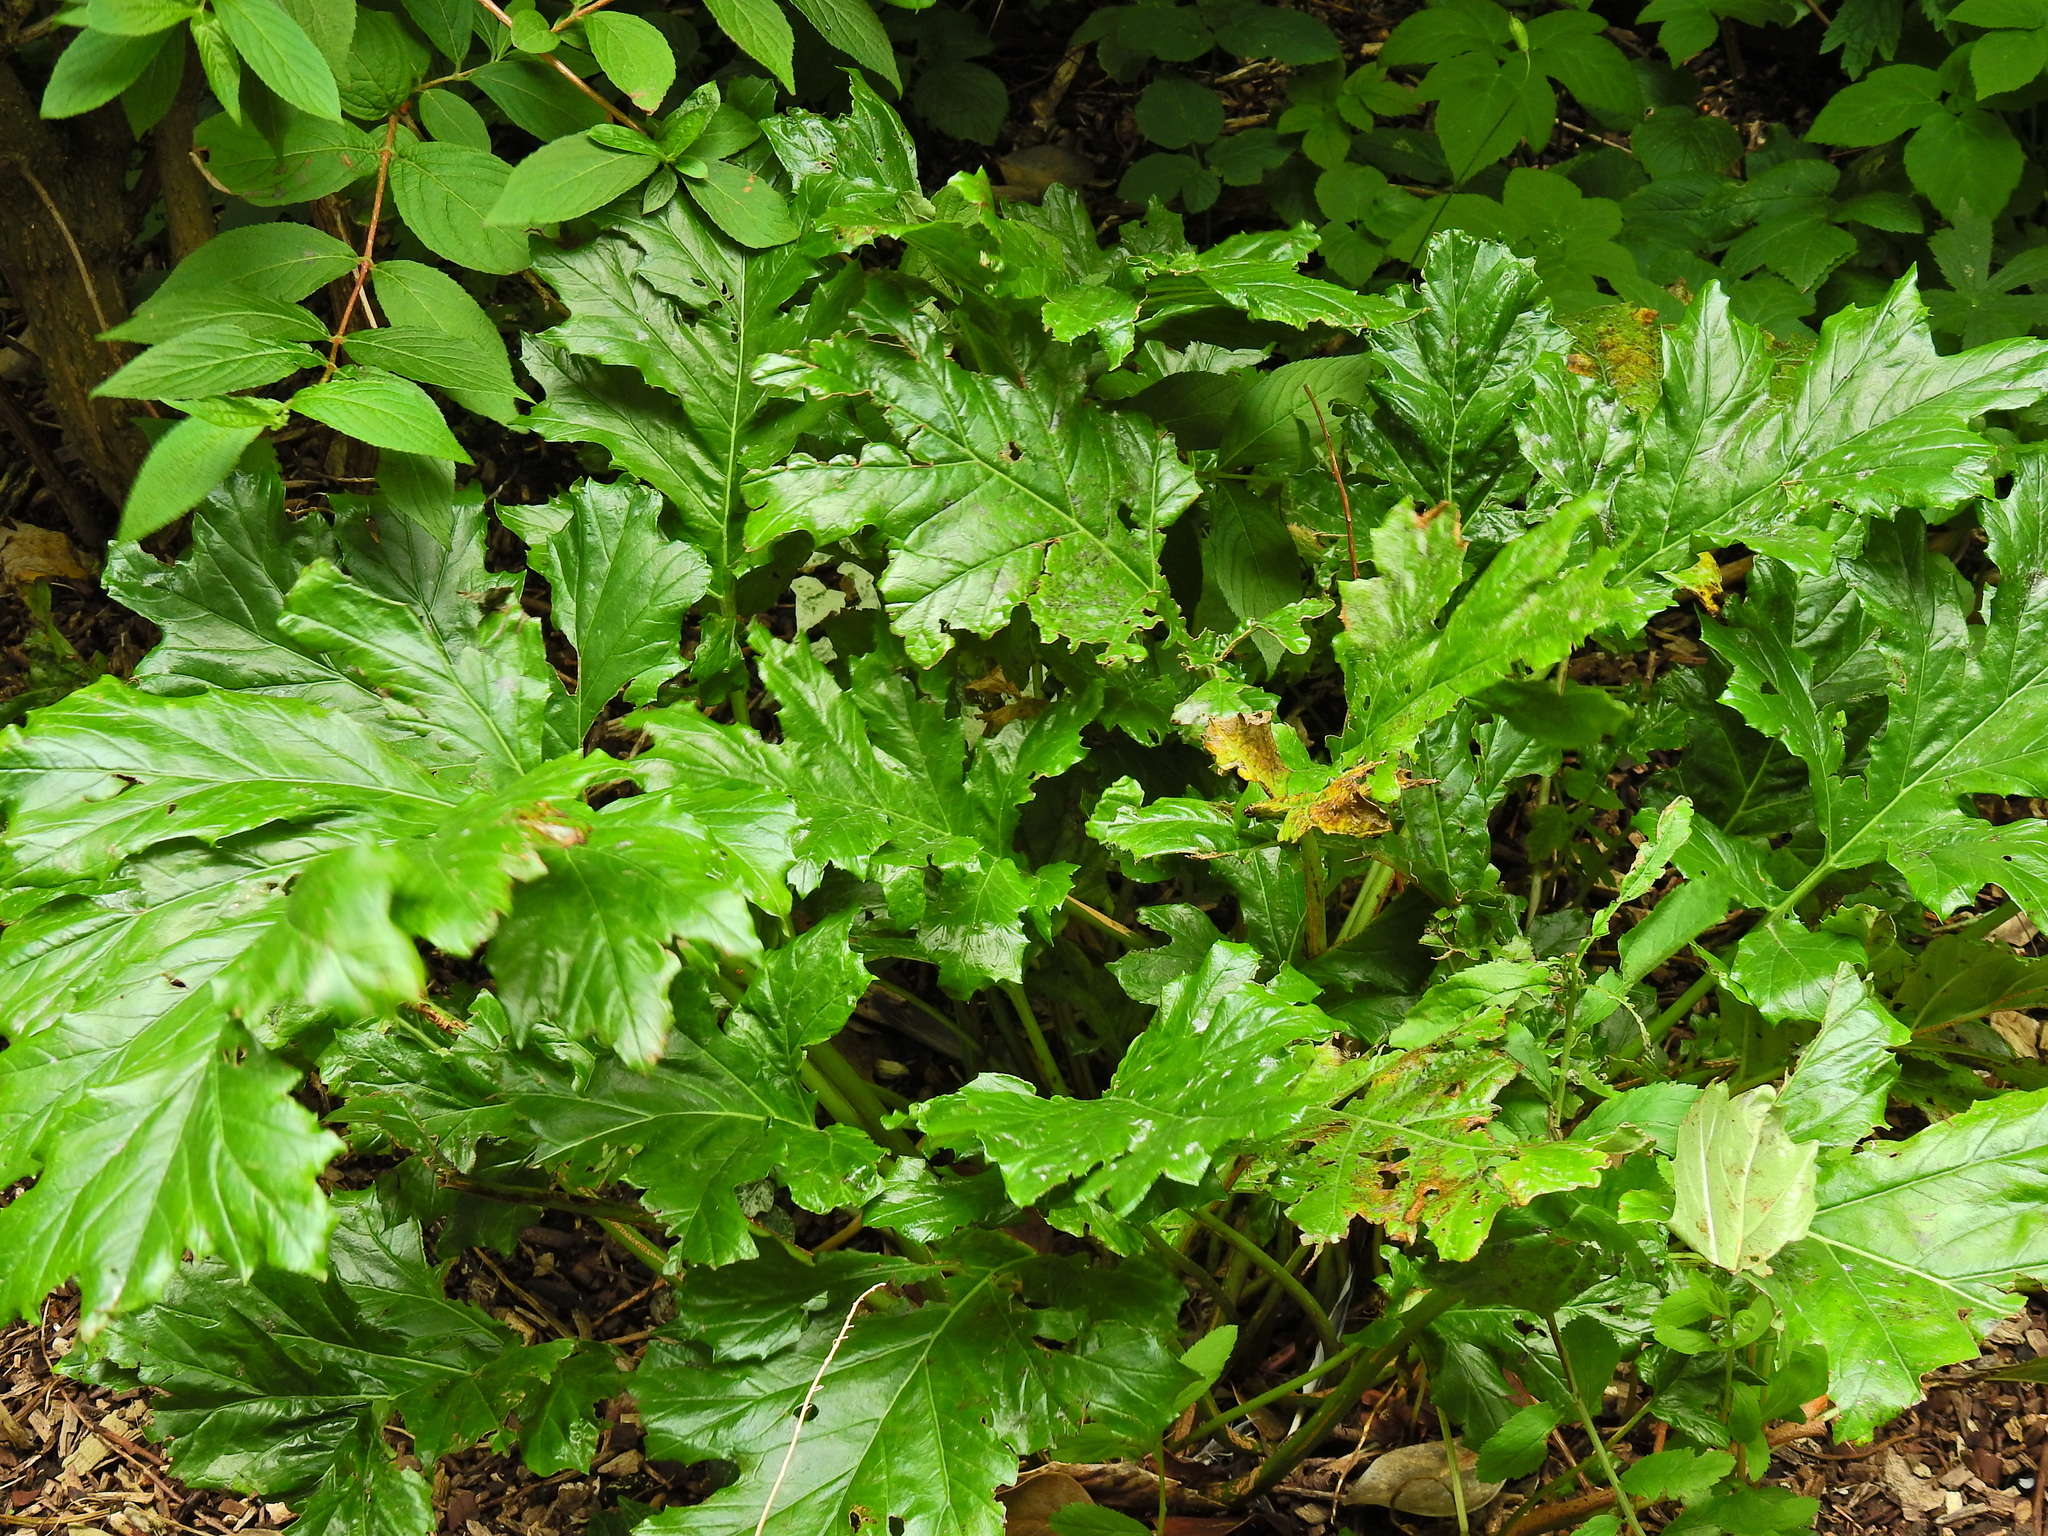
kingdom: Plantae
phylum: Tracheophyta
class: Magnoliopsida
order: Lamiales
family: Acanthaceae
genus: Acanthus
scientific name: Acanthus mollis
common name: Bear's-breech
